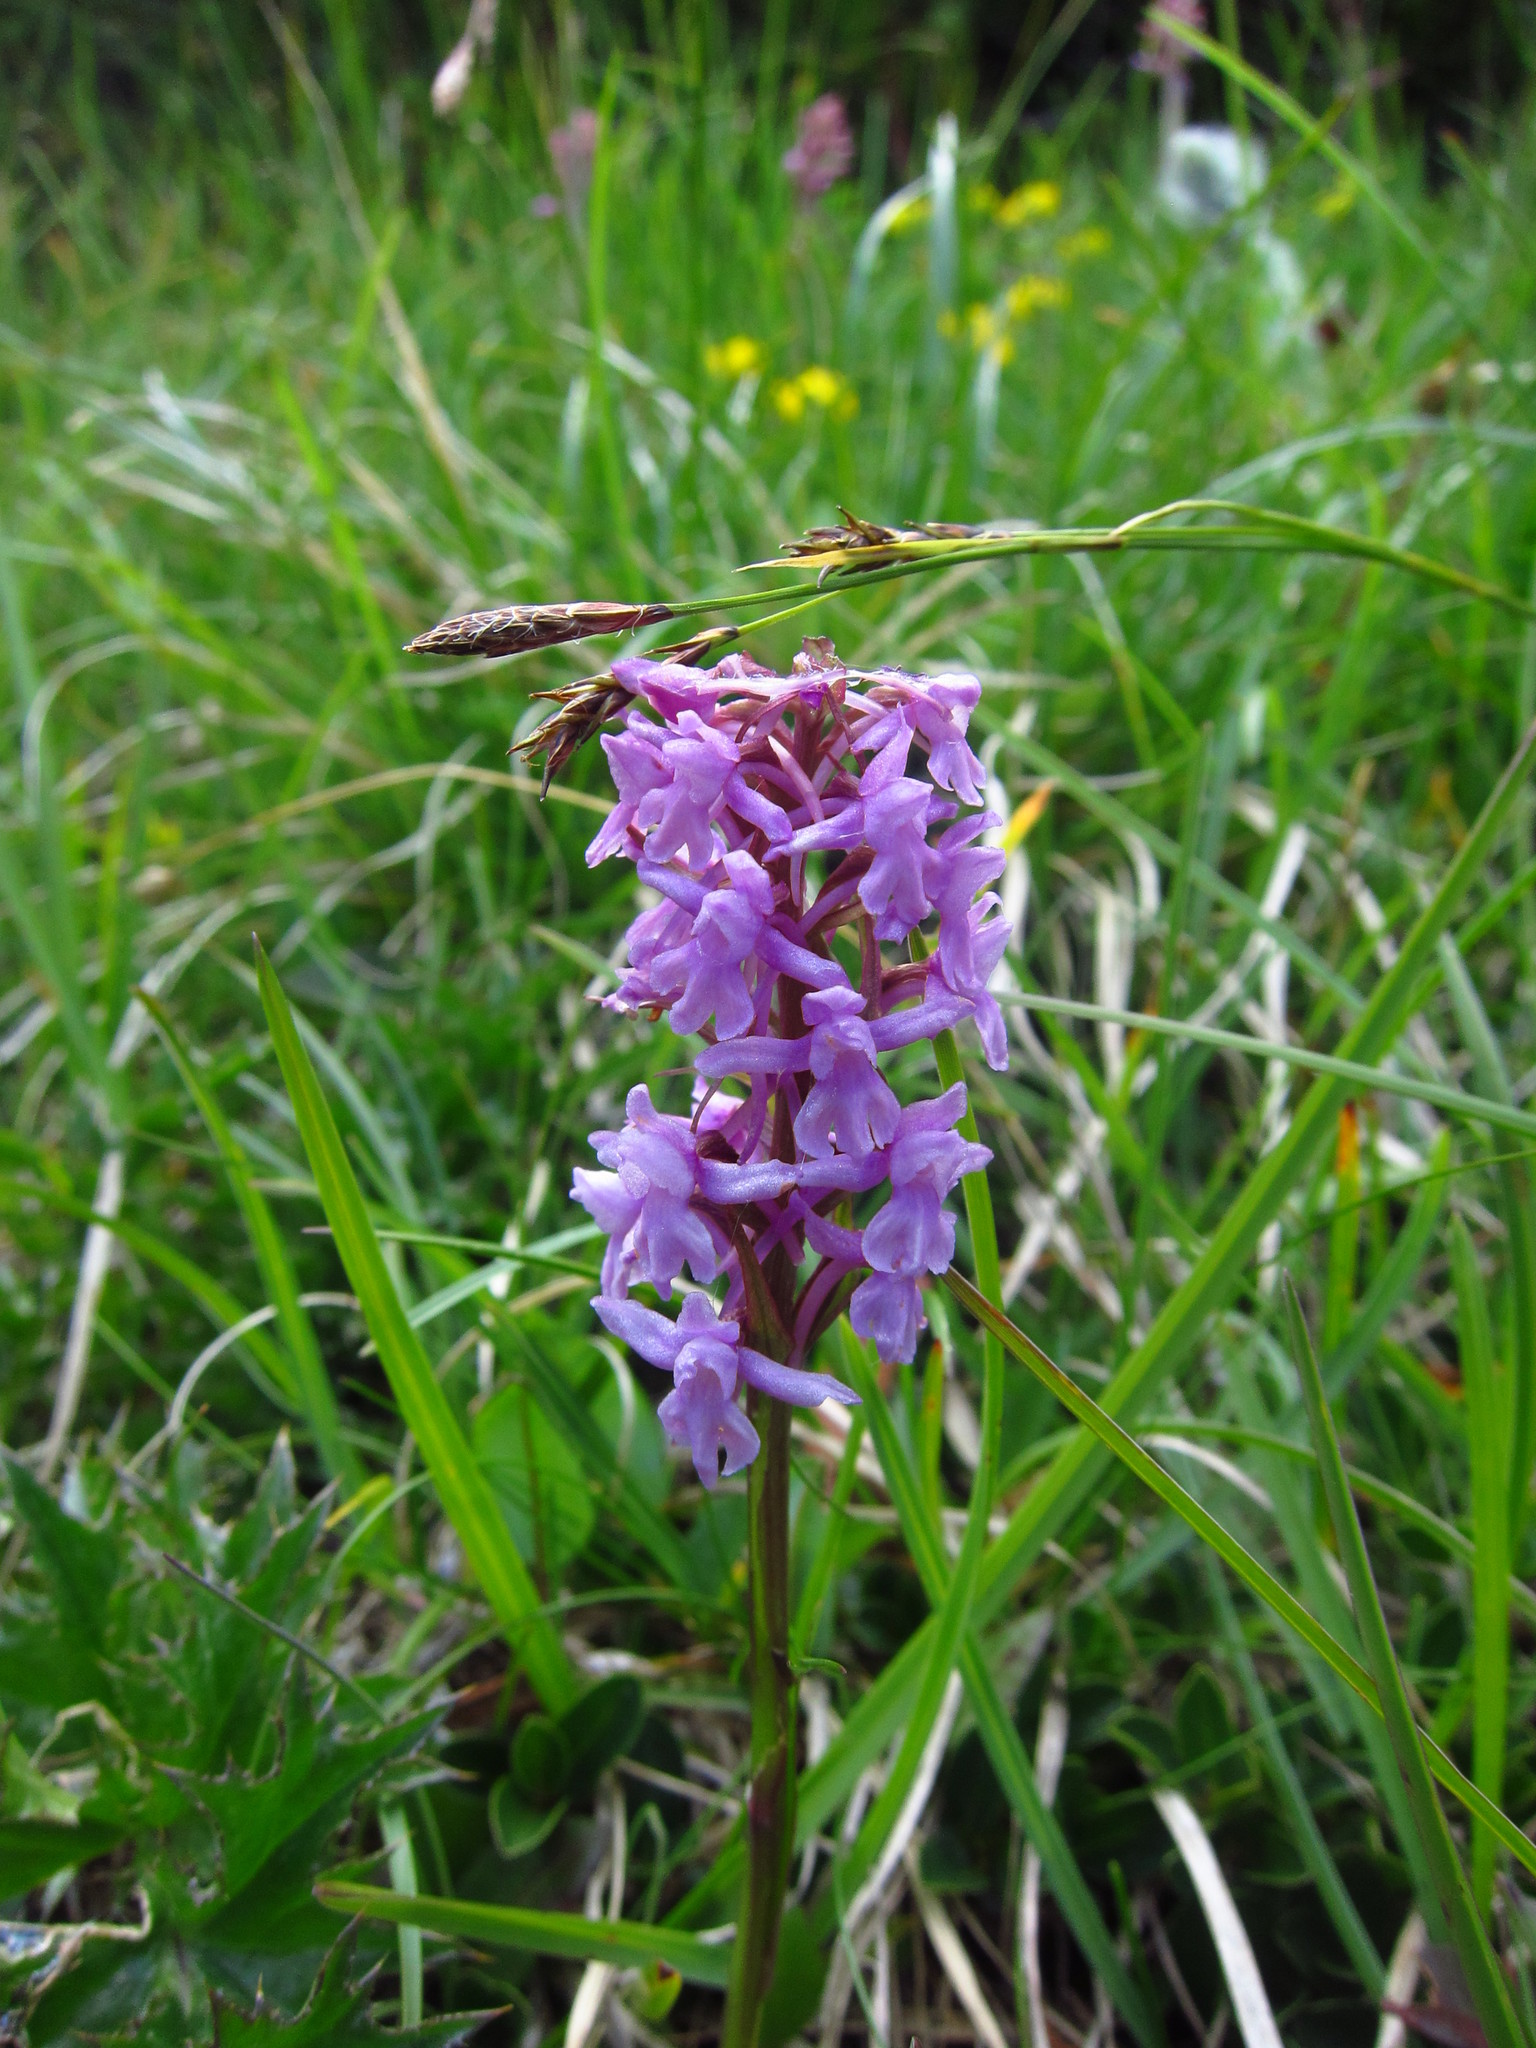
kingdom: Plantae
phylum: Tracheophyta
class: Liliopsida
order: Asparagales
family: Orchidaceae
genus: Gymnadenia
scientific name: Gymnadenia conopsea
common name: Fragrant orchid
